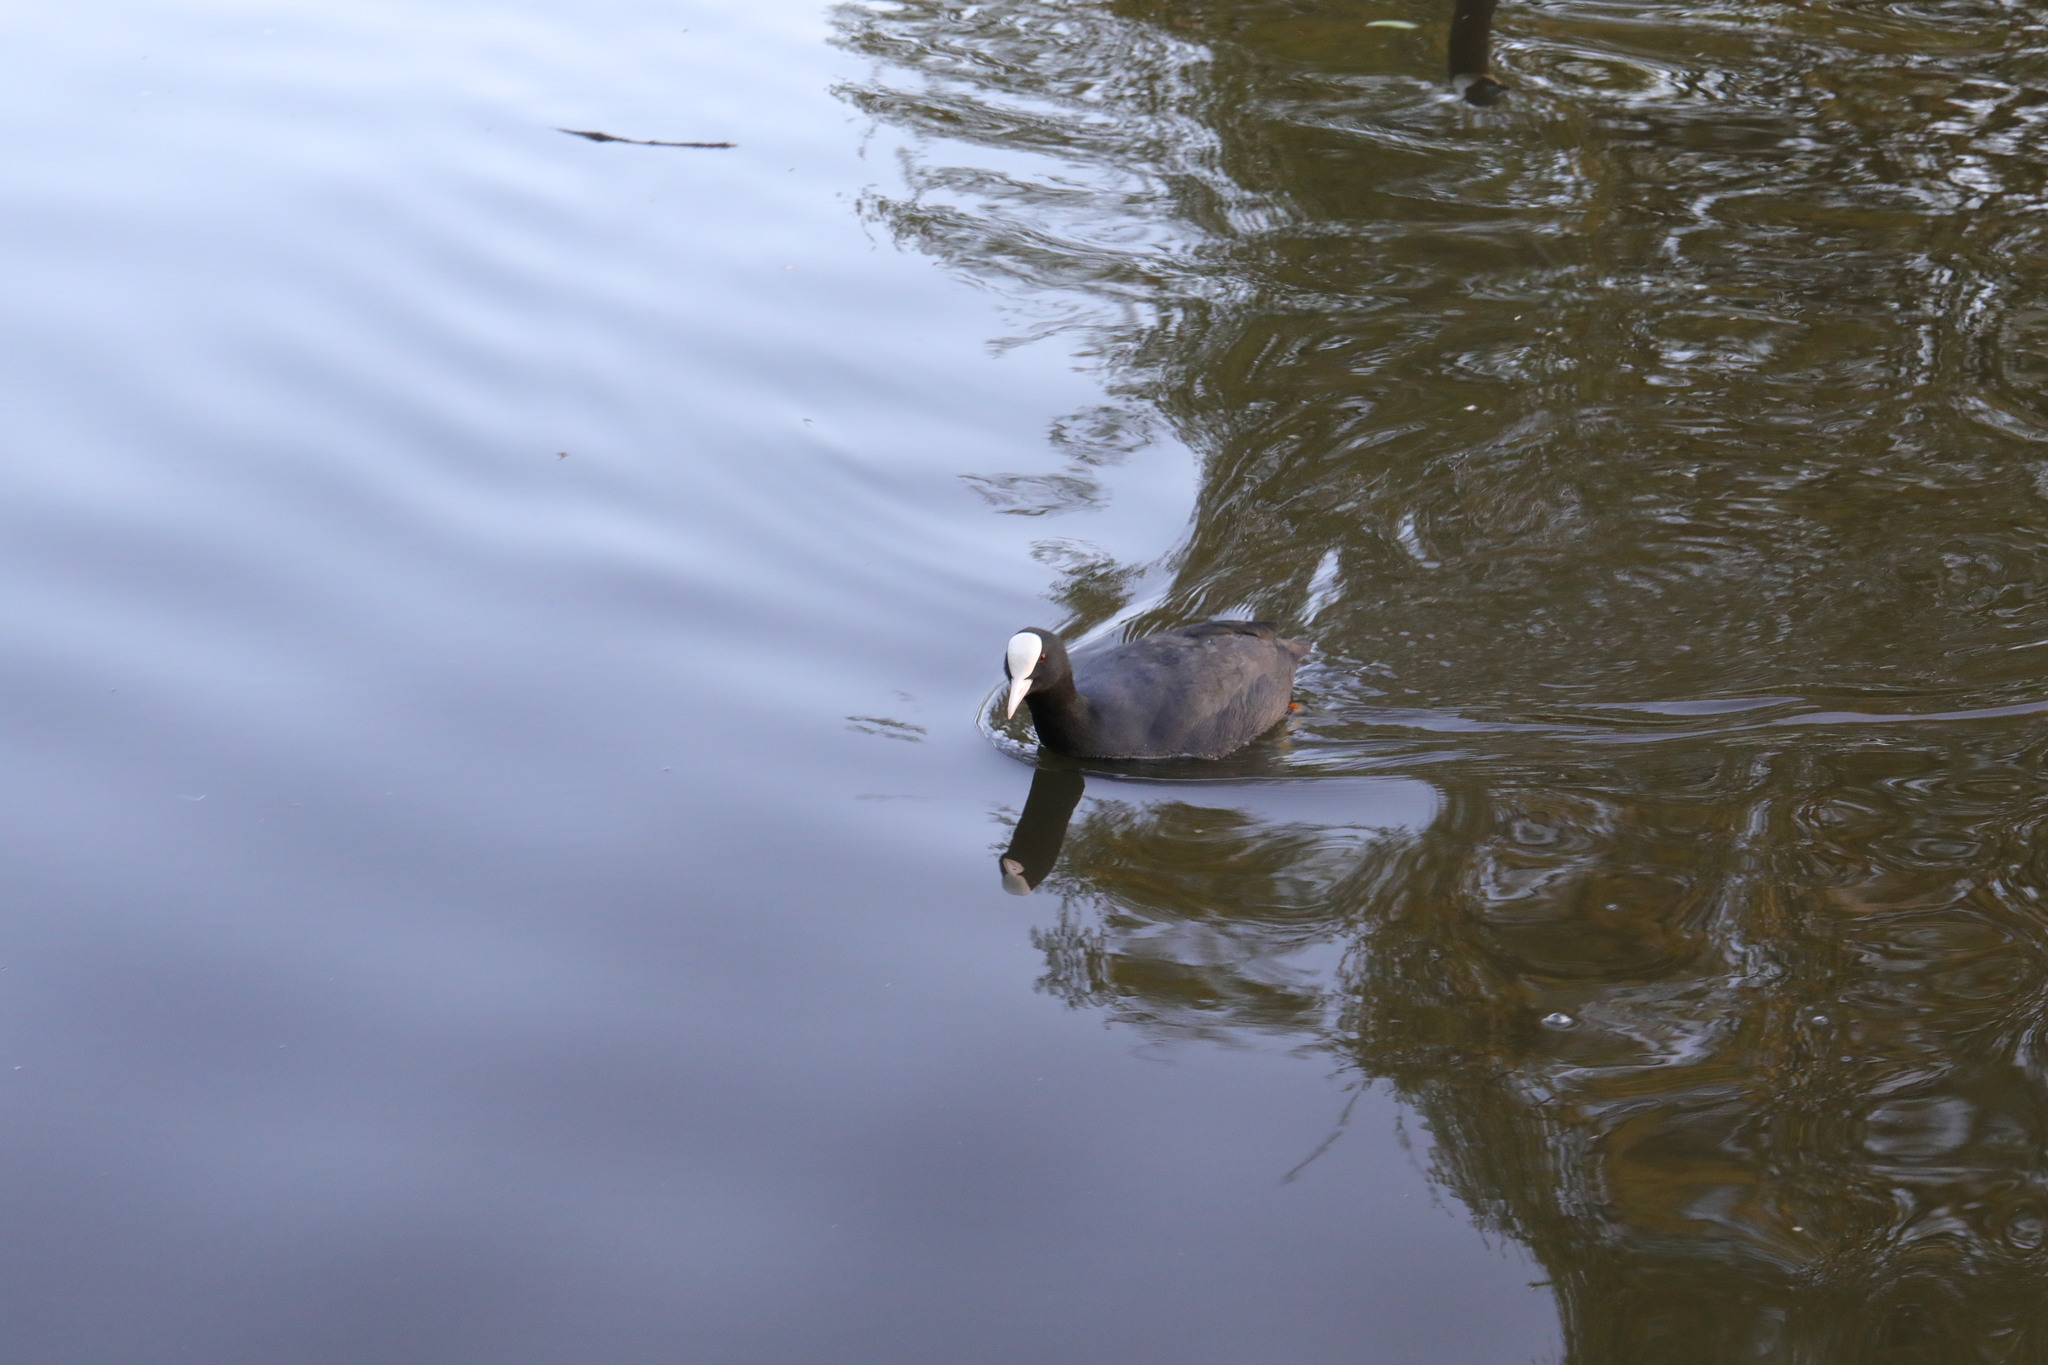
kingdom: Animalia
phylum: Chordata
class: Aves
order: Gruiformes
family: Rallidae
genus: Fulica
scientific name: Fulica atra
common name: Eurasian coot
